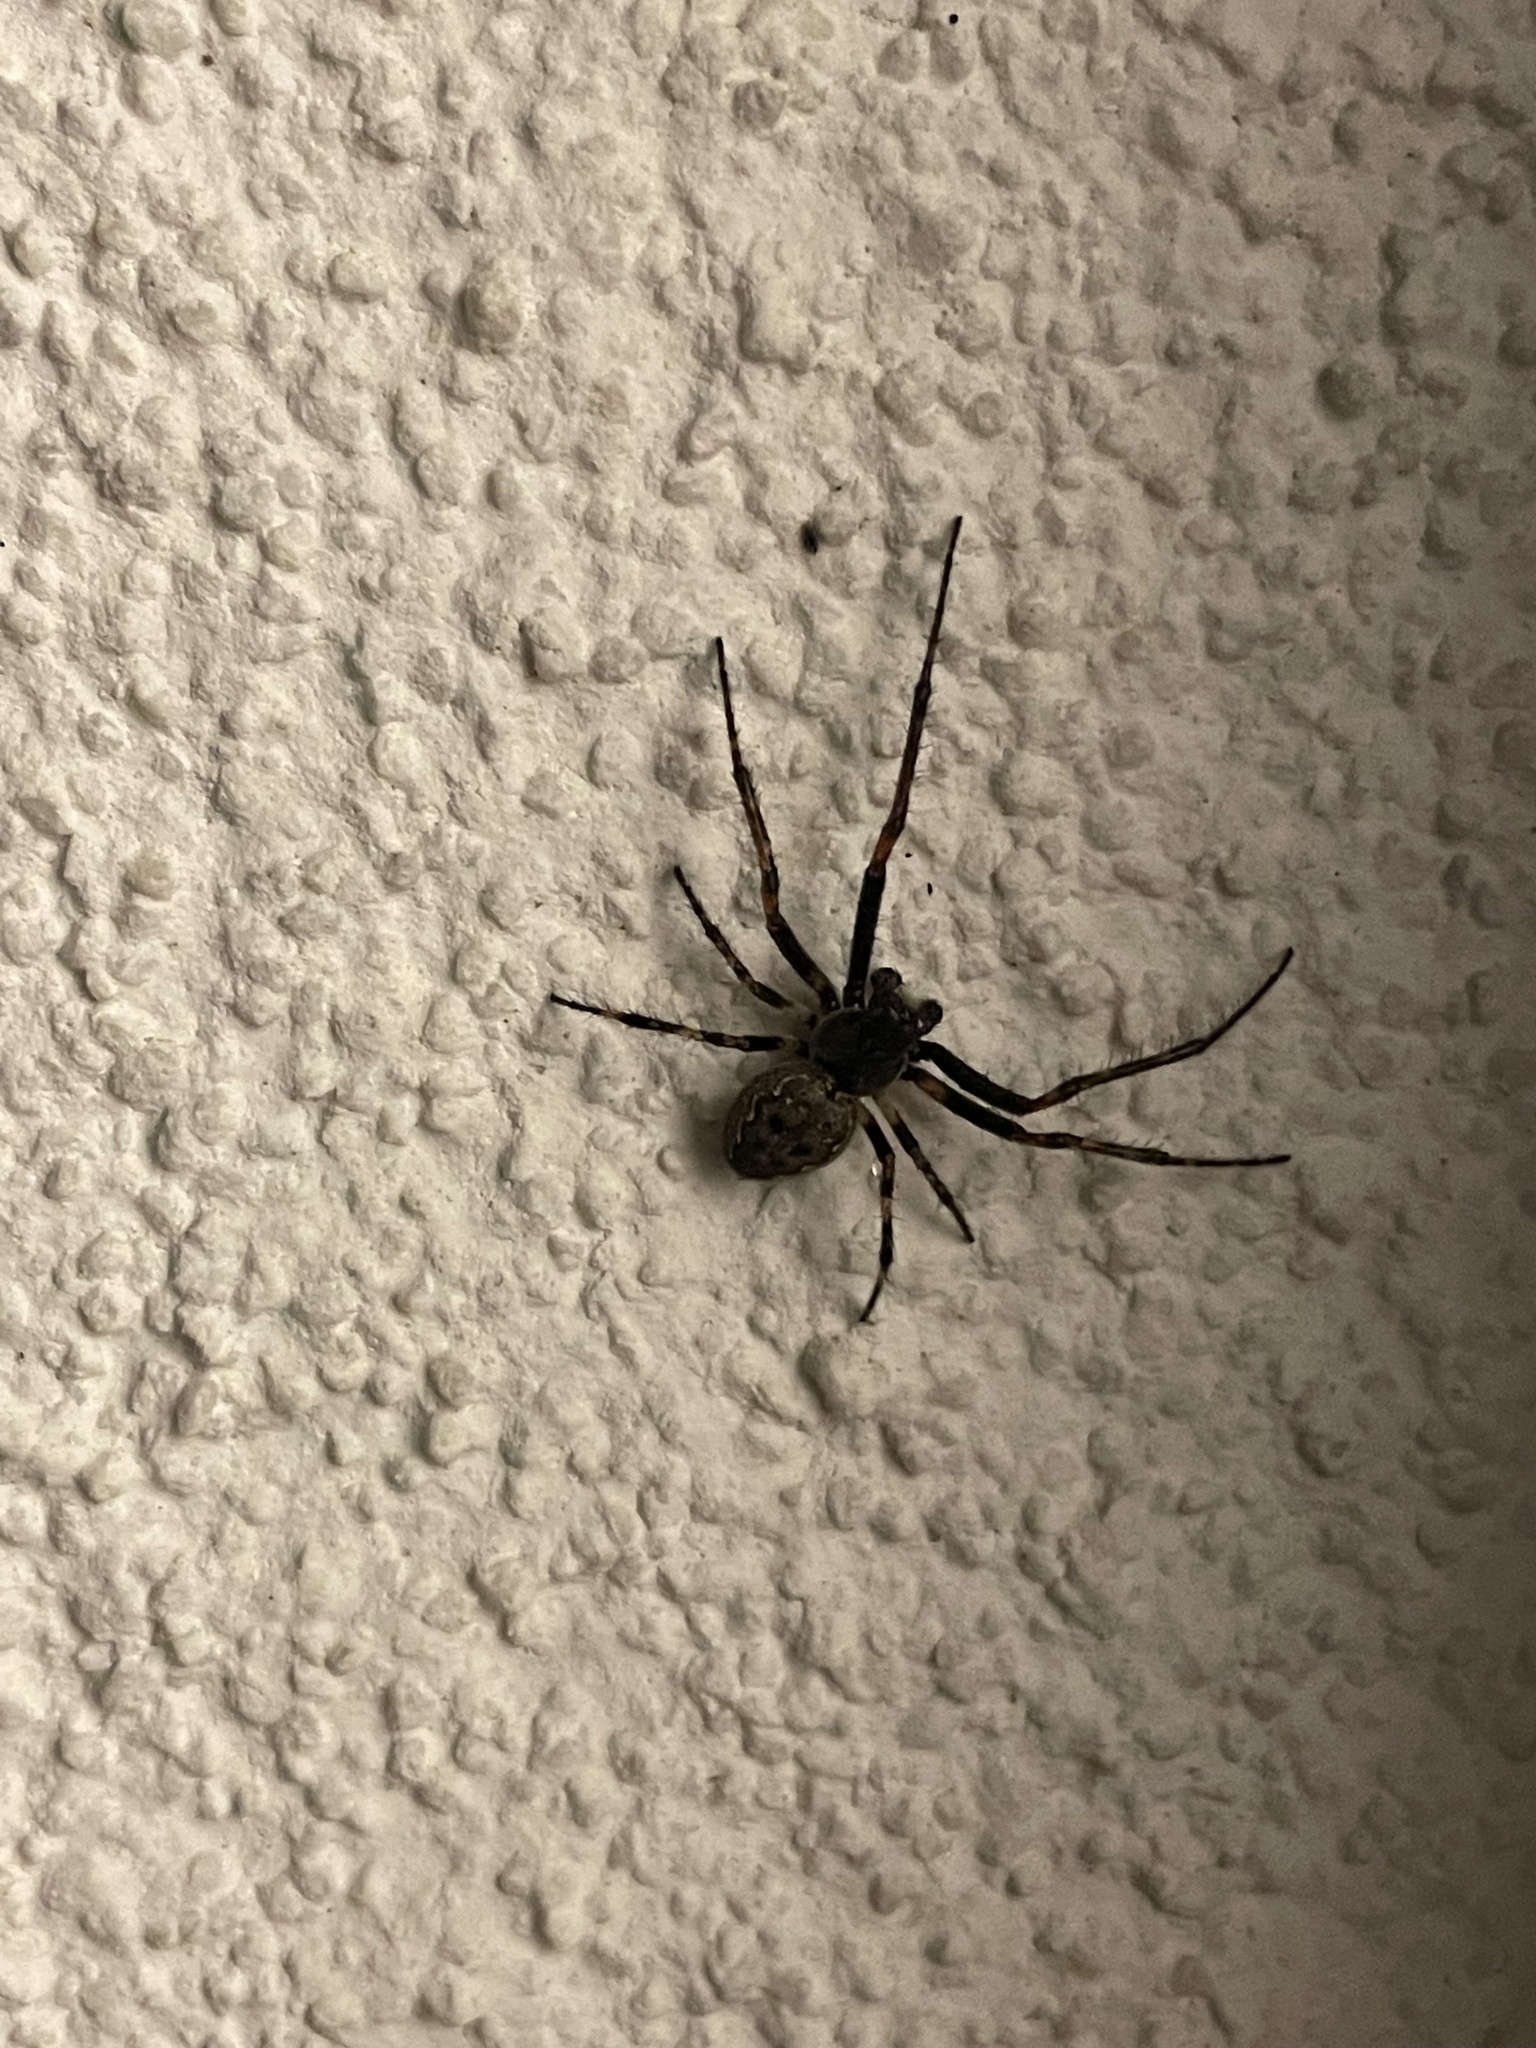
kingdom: Animalia
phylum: Arthropoda
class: Arachnida
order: Araneae
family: Araneidae
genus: Nuctenea
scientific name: Nuctenea umbratica
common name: Toad spider
